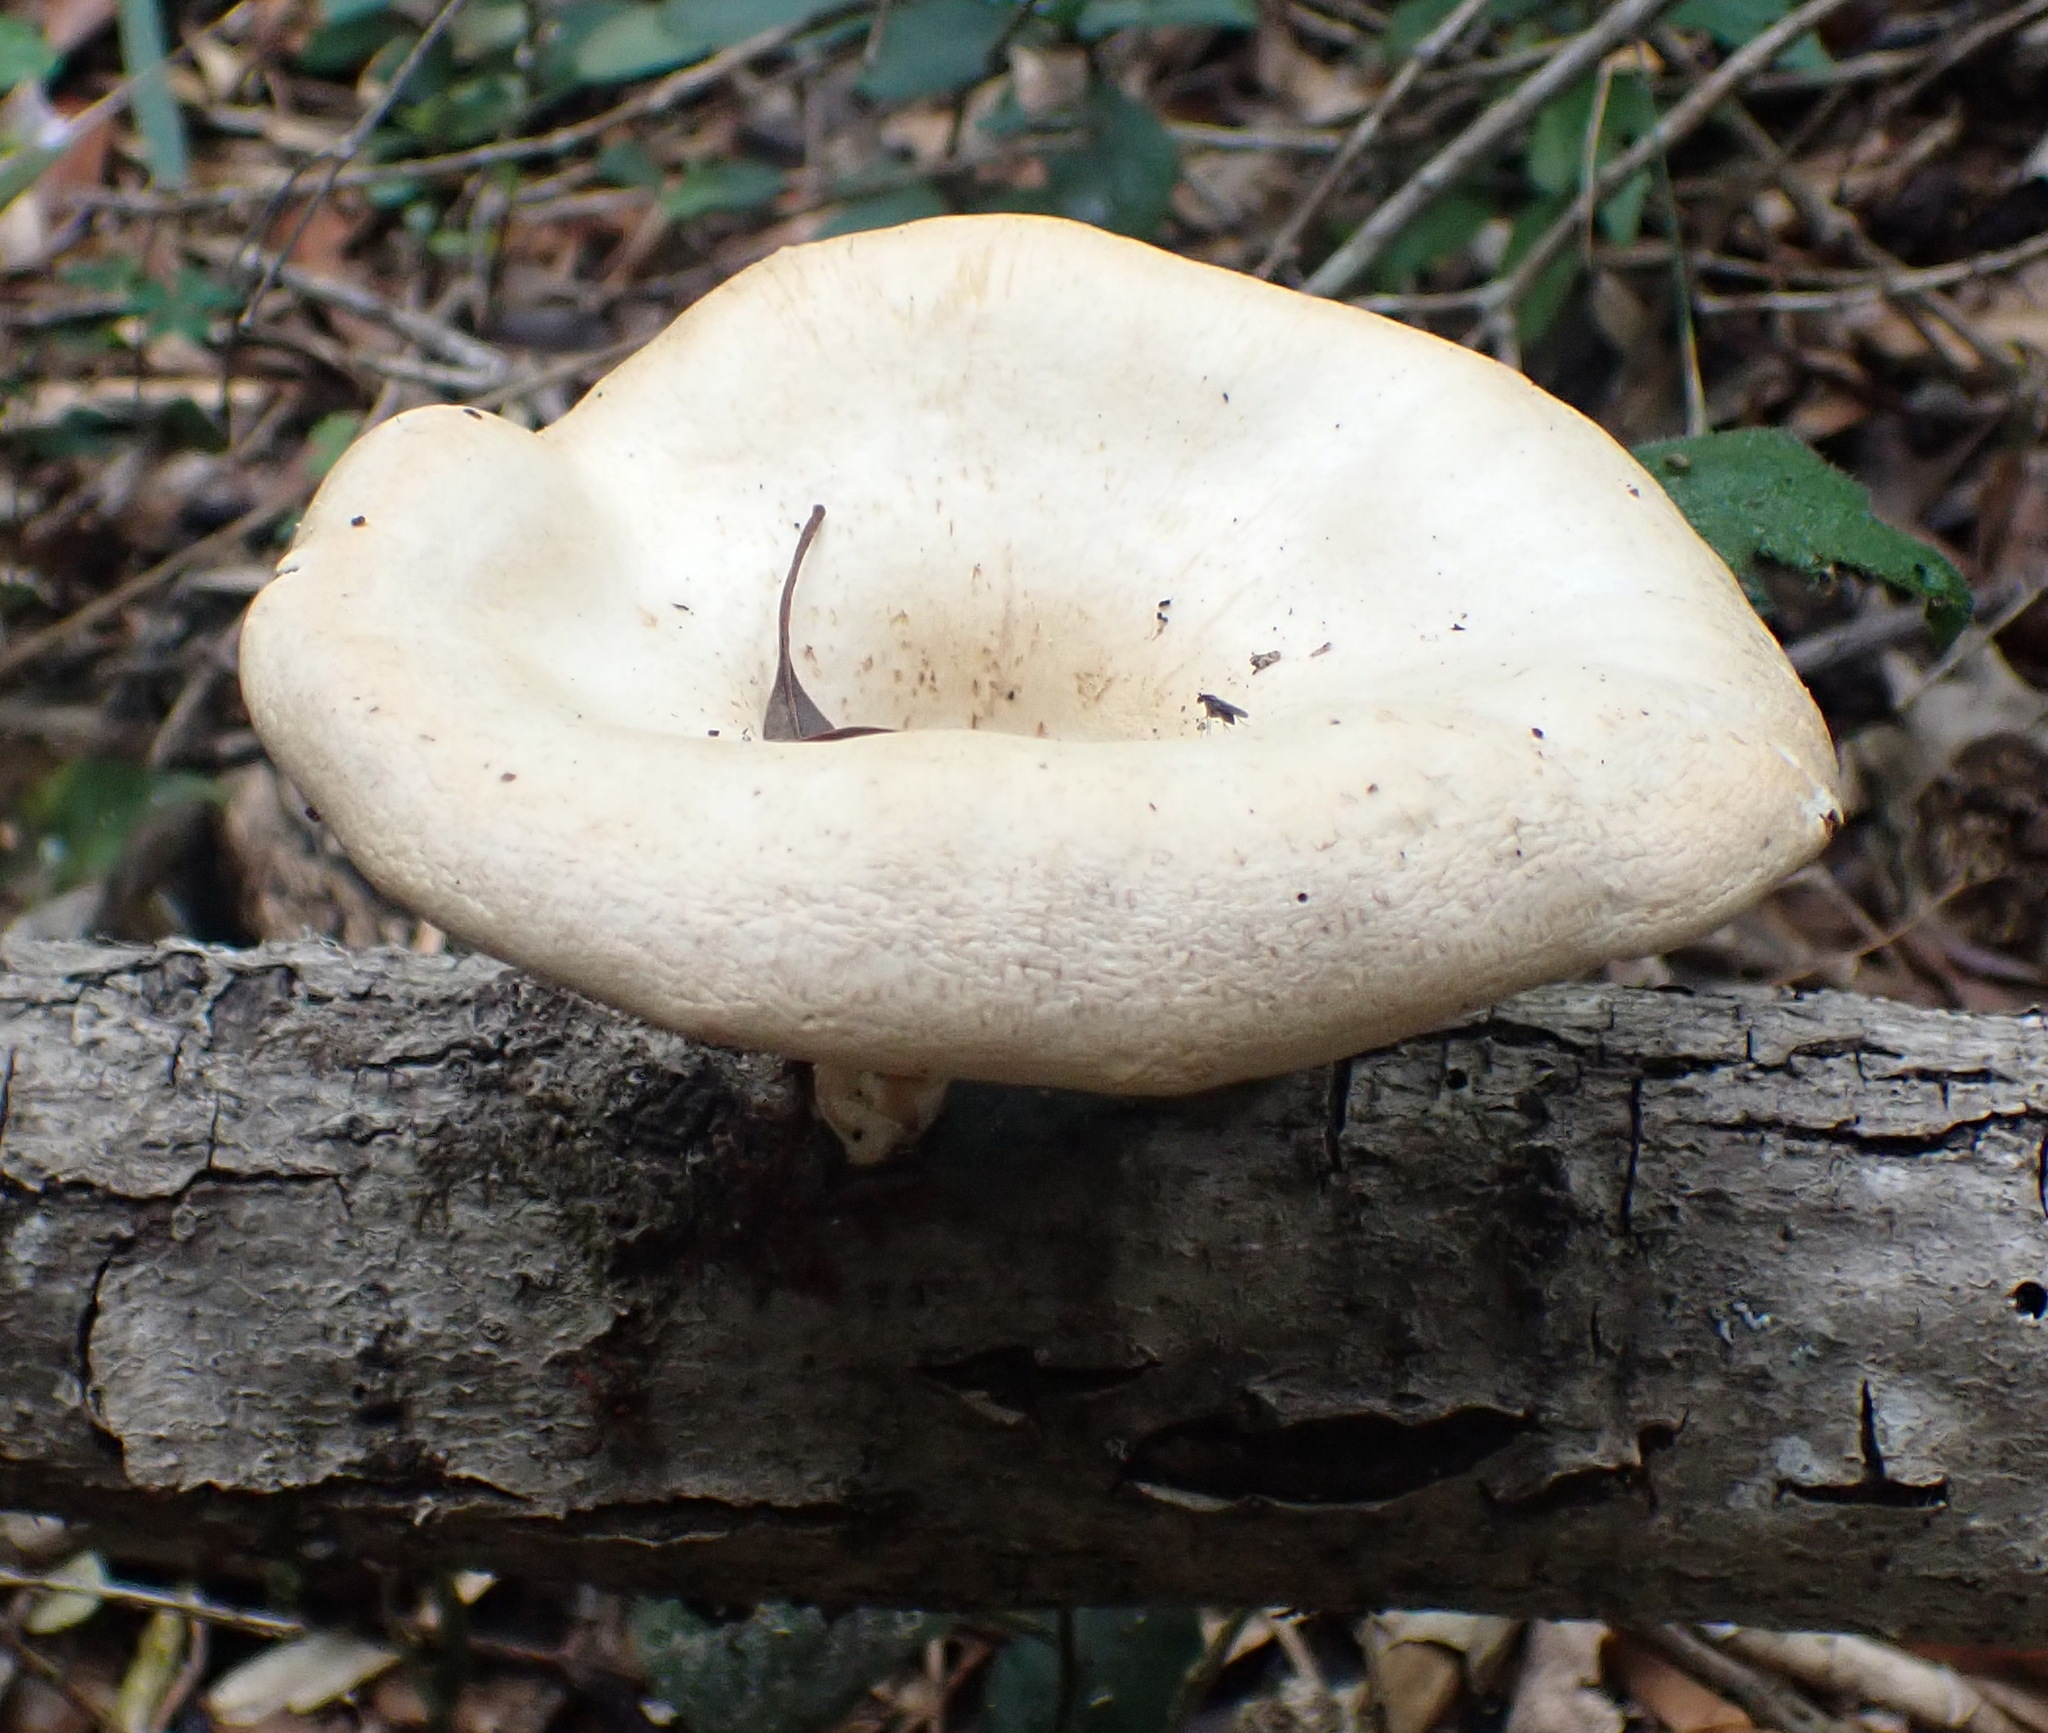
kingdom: Fungi
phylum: Basidiomycota
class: Agaricomycetes
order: Polyporales
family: Polyporaceae
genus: Lentinus
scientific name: Lentinus sajor-caju
